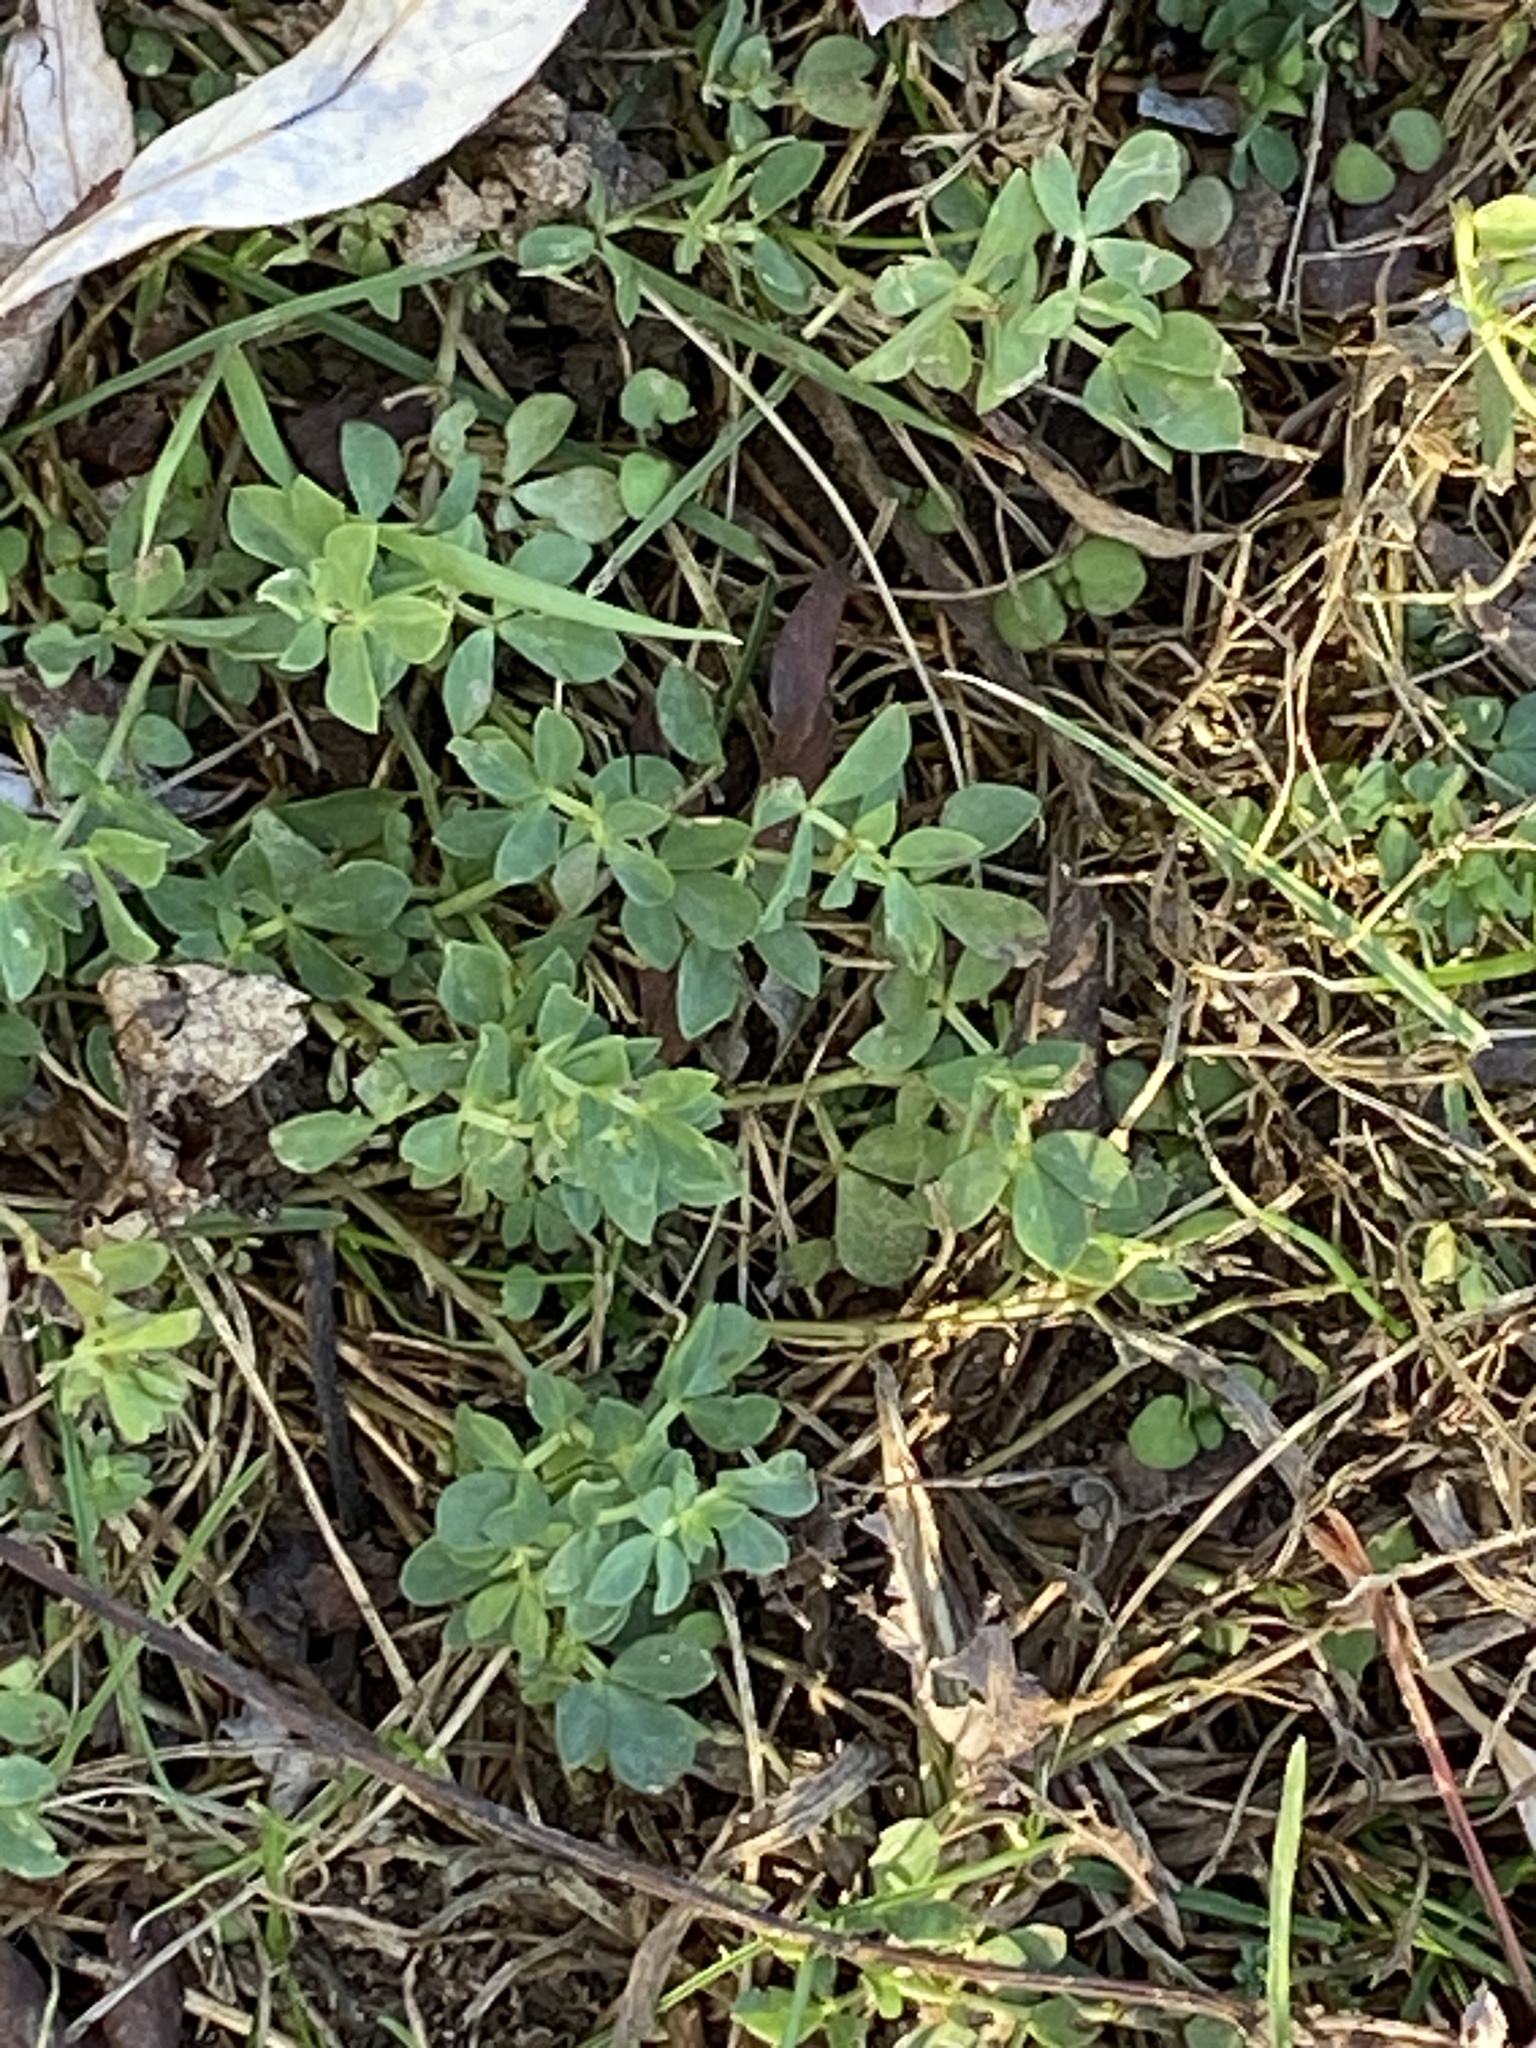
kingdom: Plantae
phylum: Tracheophyta
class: Magnoliopsida
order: Fabales
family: Fabaceae
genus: Lotus
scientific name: Lotus corniculatus
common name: Common bird's-foot-trefoil
